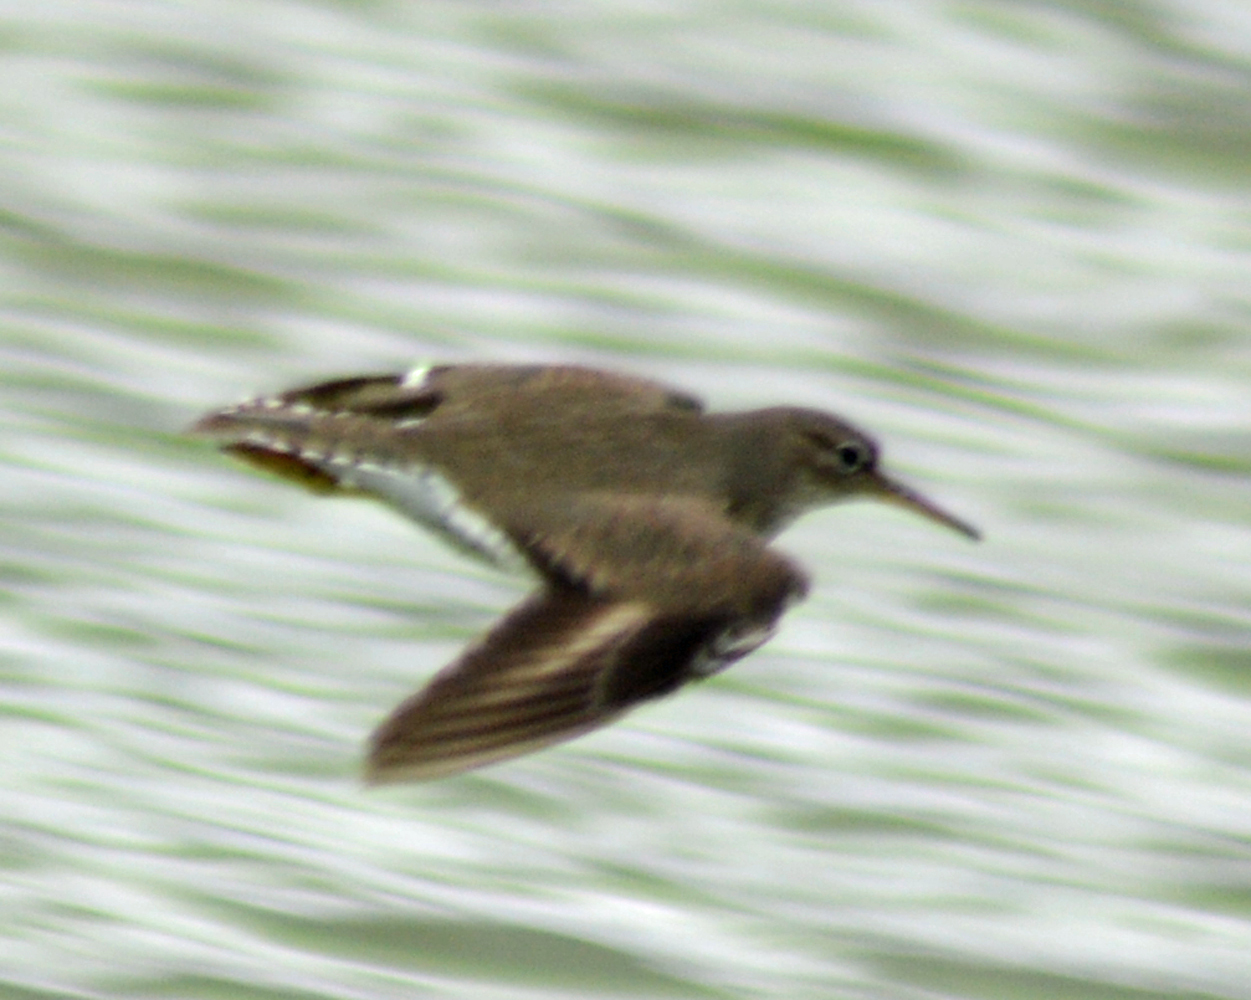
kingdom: Animalia
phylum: Chordata
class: Aves
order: Charadriiformes
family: Scolopacidae
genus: Actitis
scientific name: Actitis macularius
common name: Spotted sandpiper
